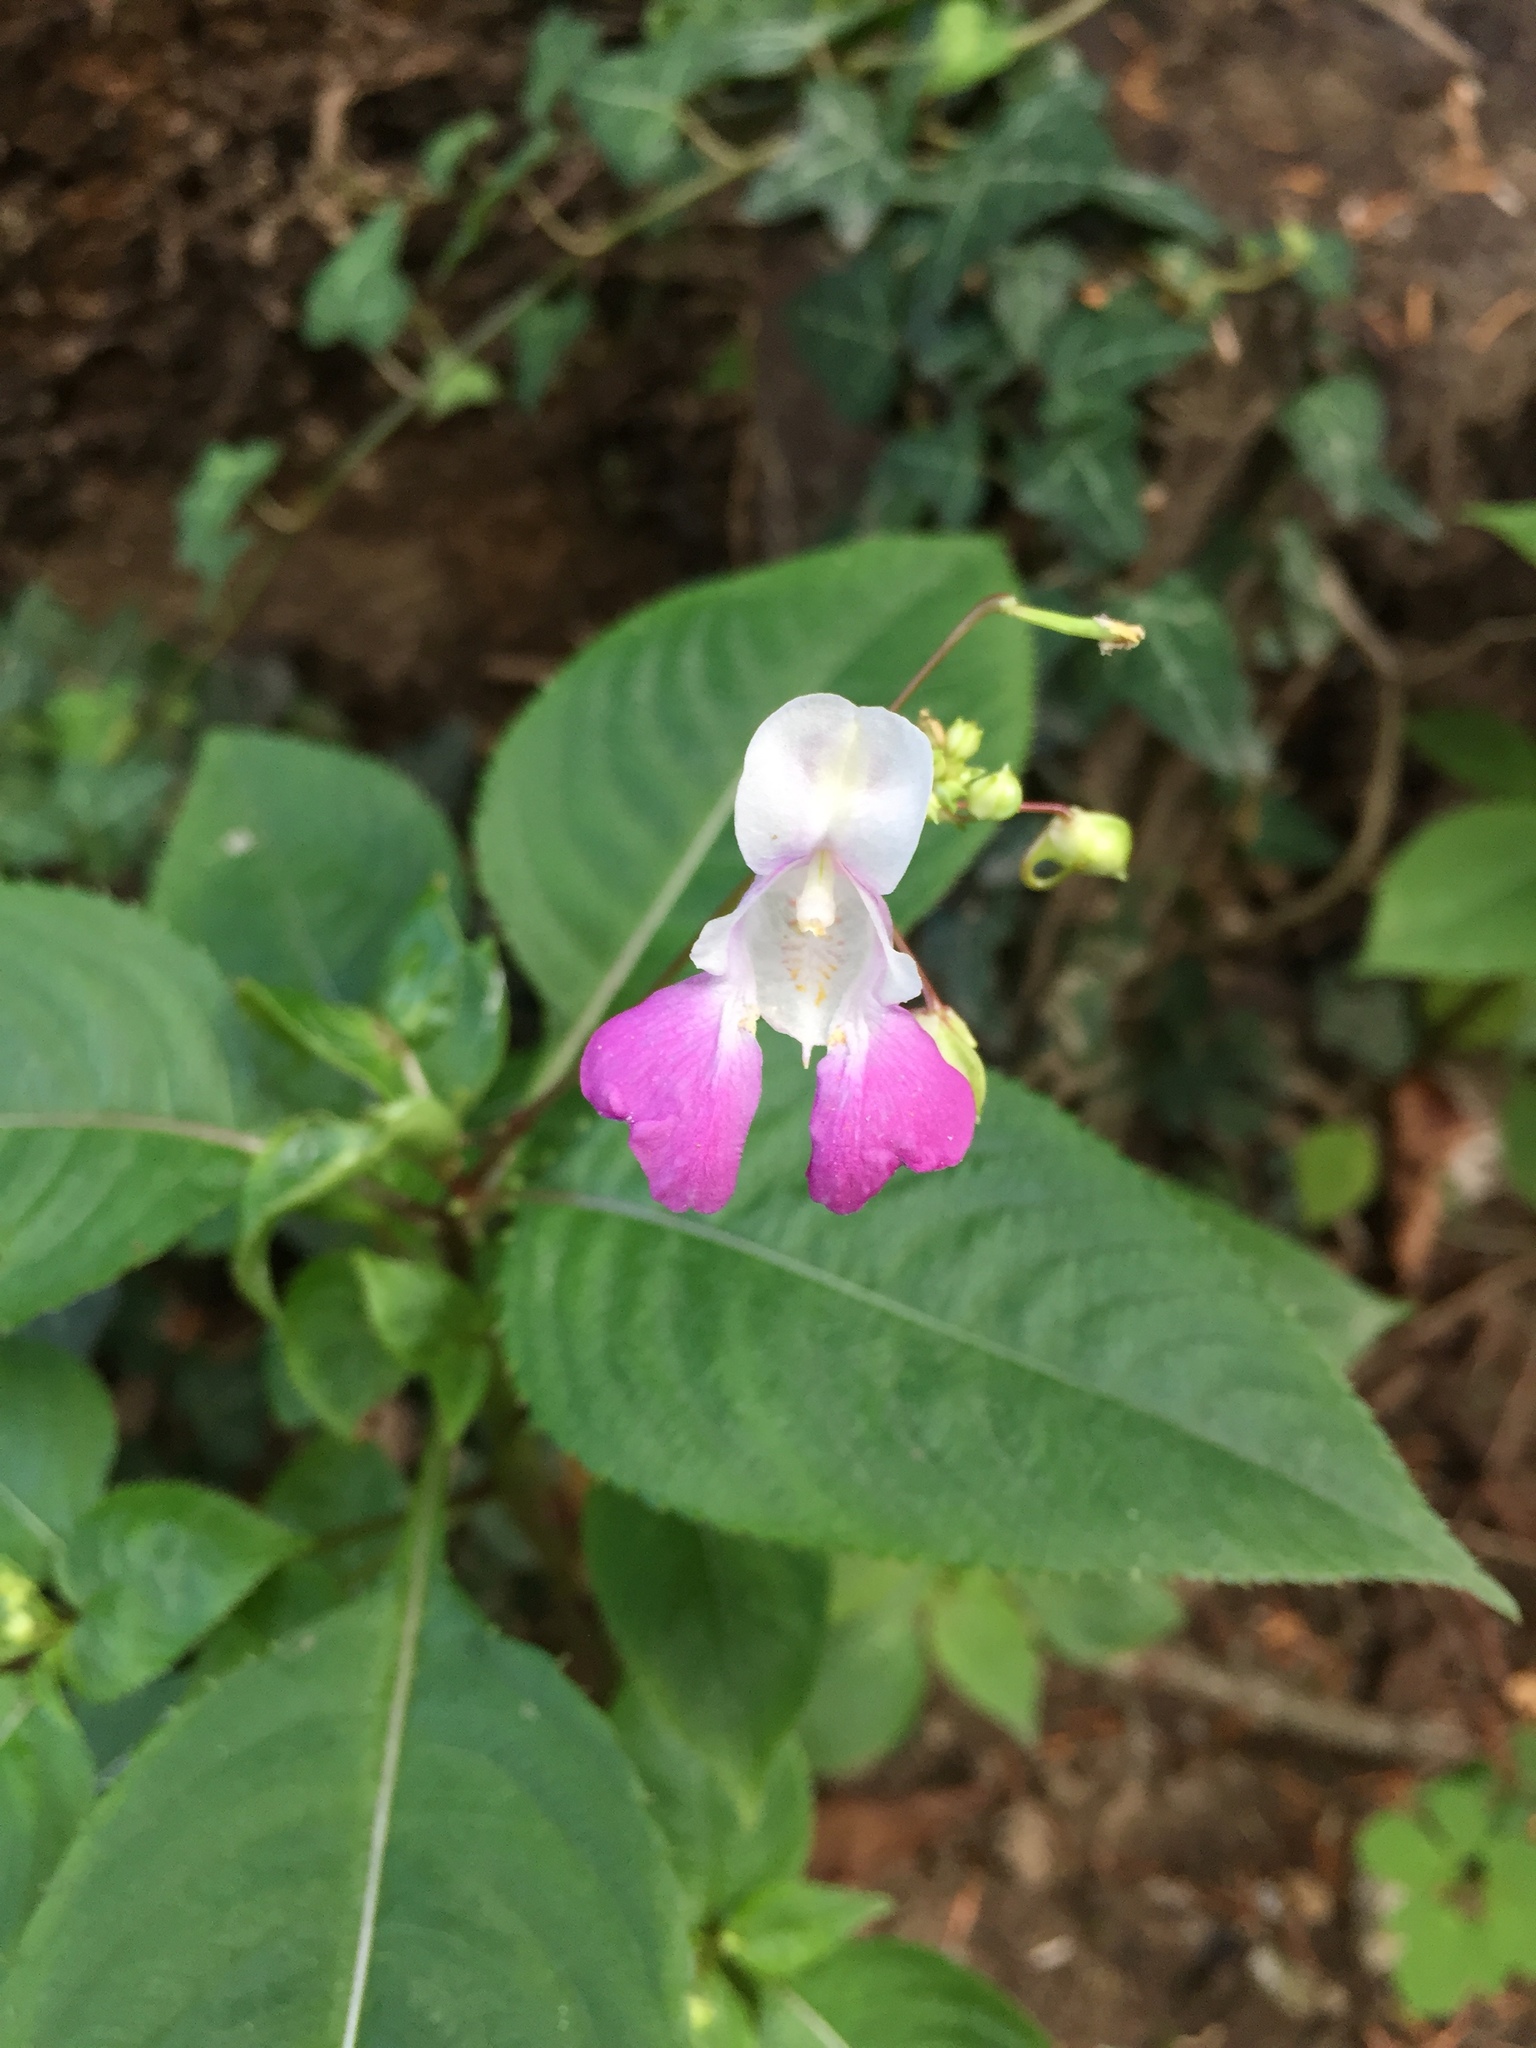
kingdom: Plantae
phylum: Tracheophyta
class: Magnoliopsida
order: Ericales
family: Balsaminaceae
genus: Impatiens
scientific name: Impatiens balfourii
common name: Balfour's touch-me-not
